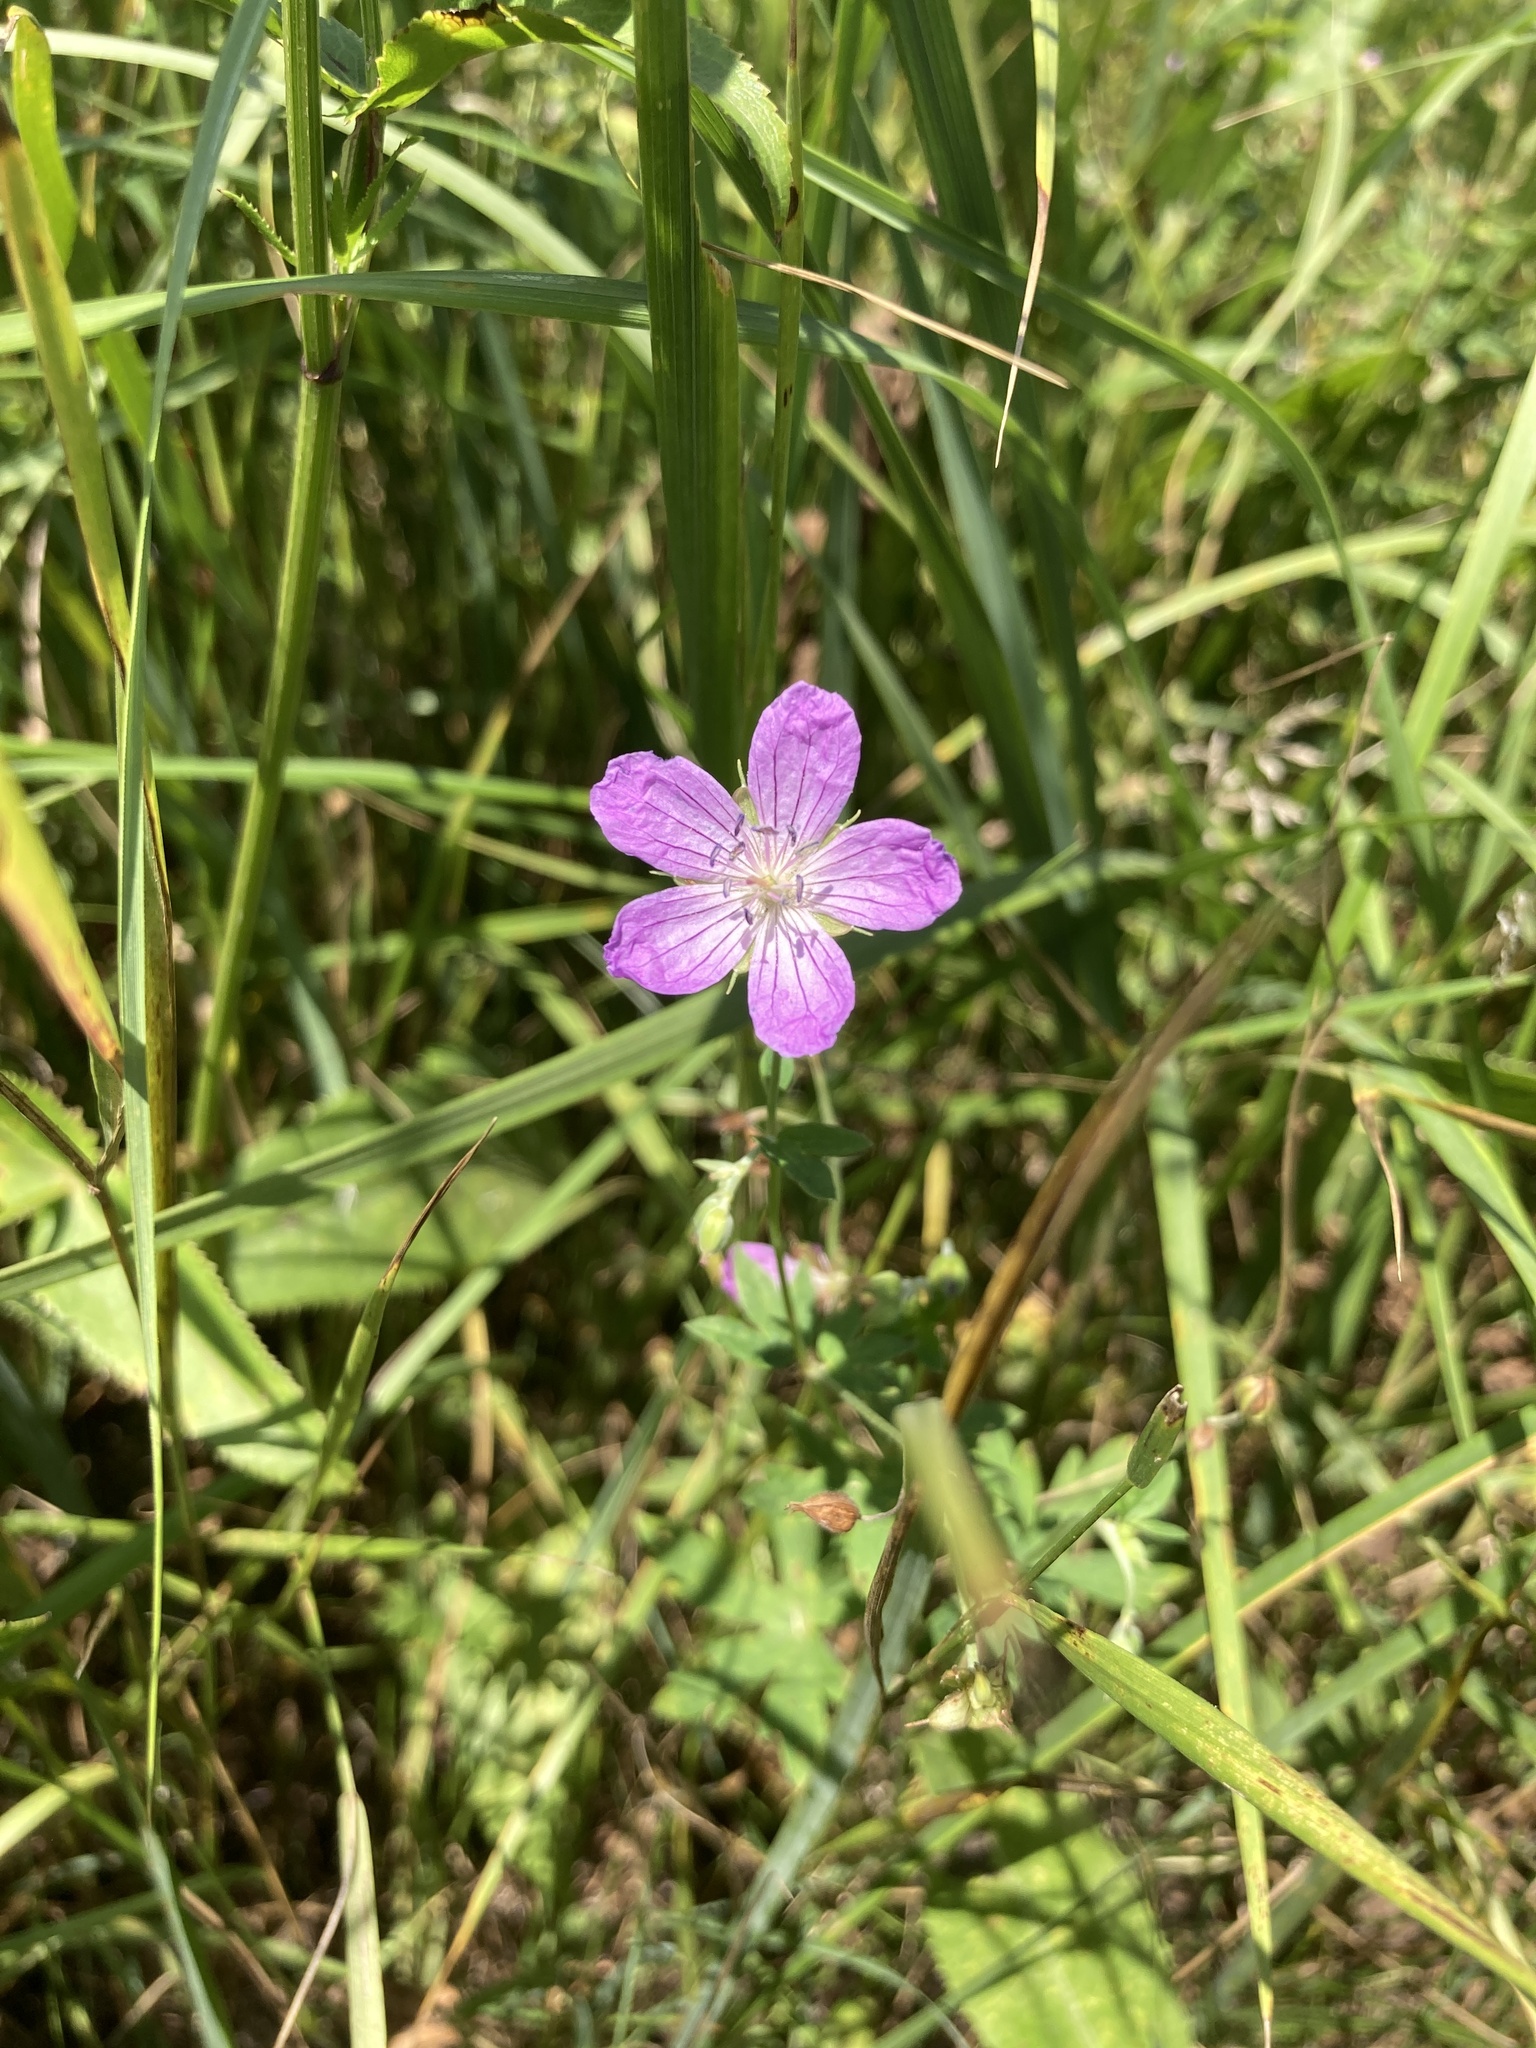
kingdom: Plantae
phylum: Tracheophyta
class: Magnoliopsida
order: Geraniales
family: Geraniaceae
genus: Geranium
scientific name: Geranium collinum
